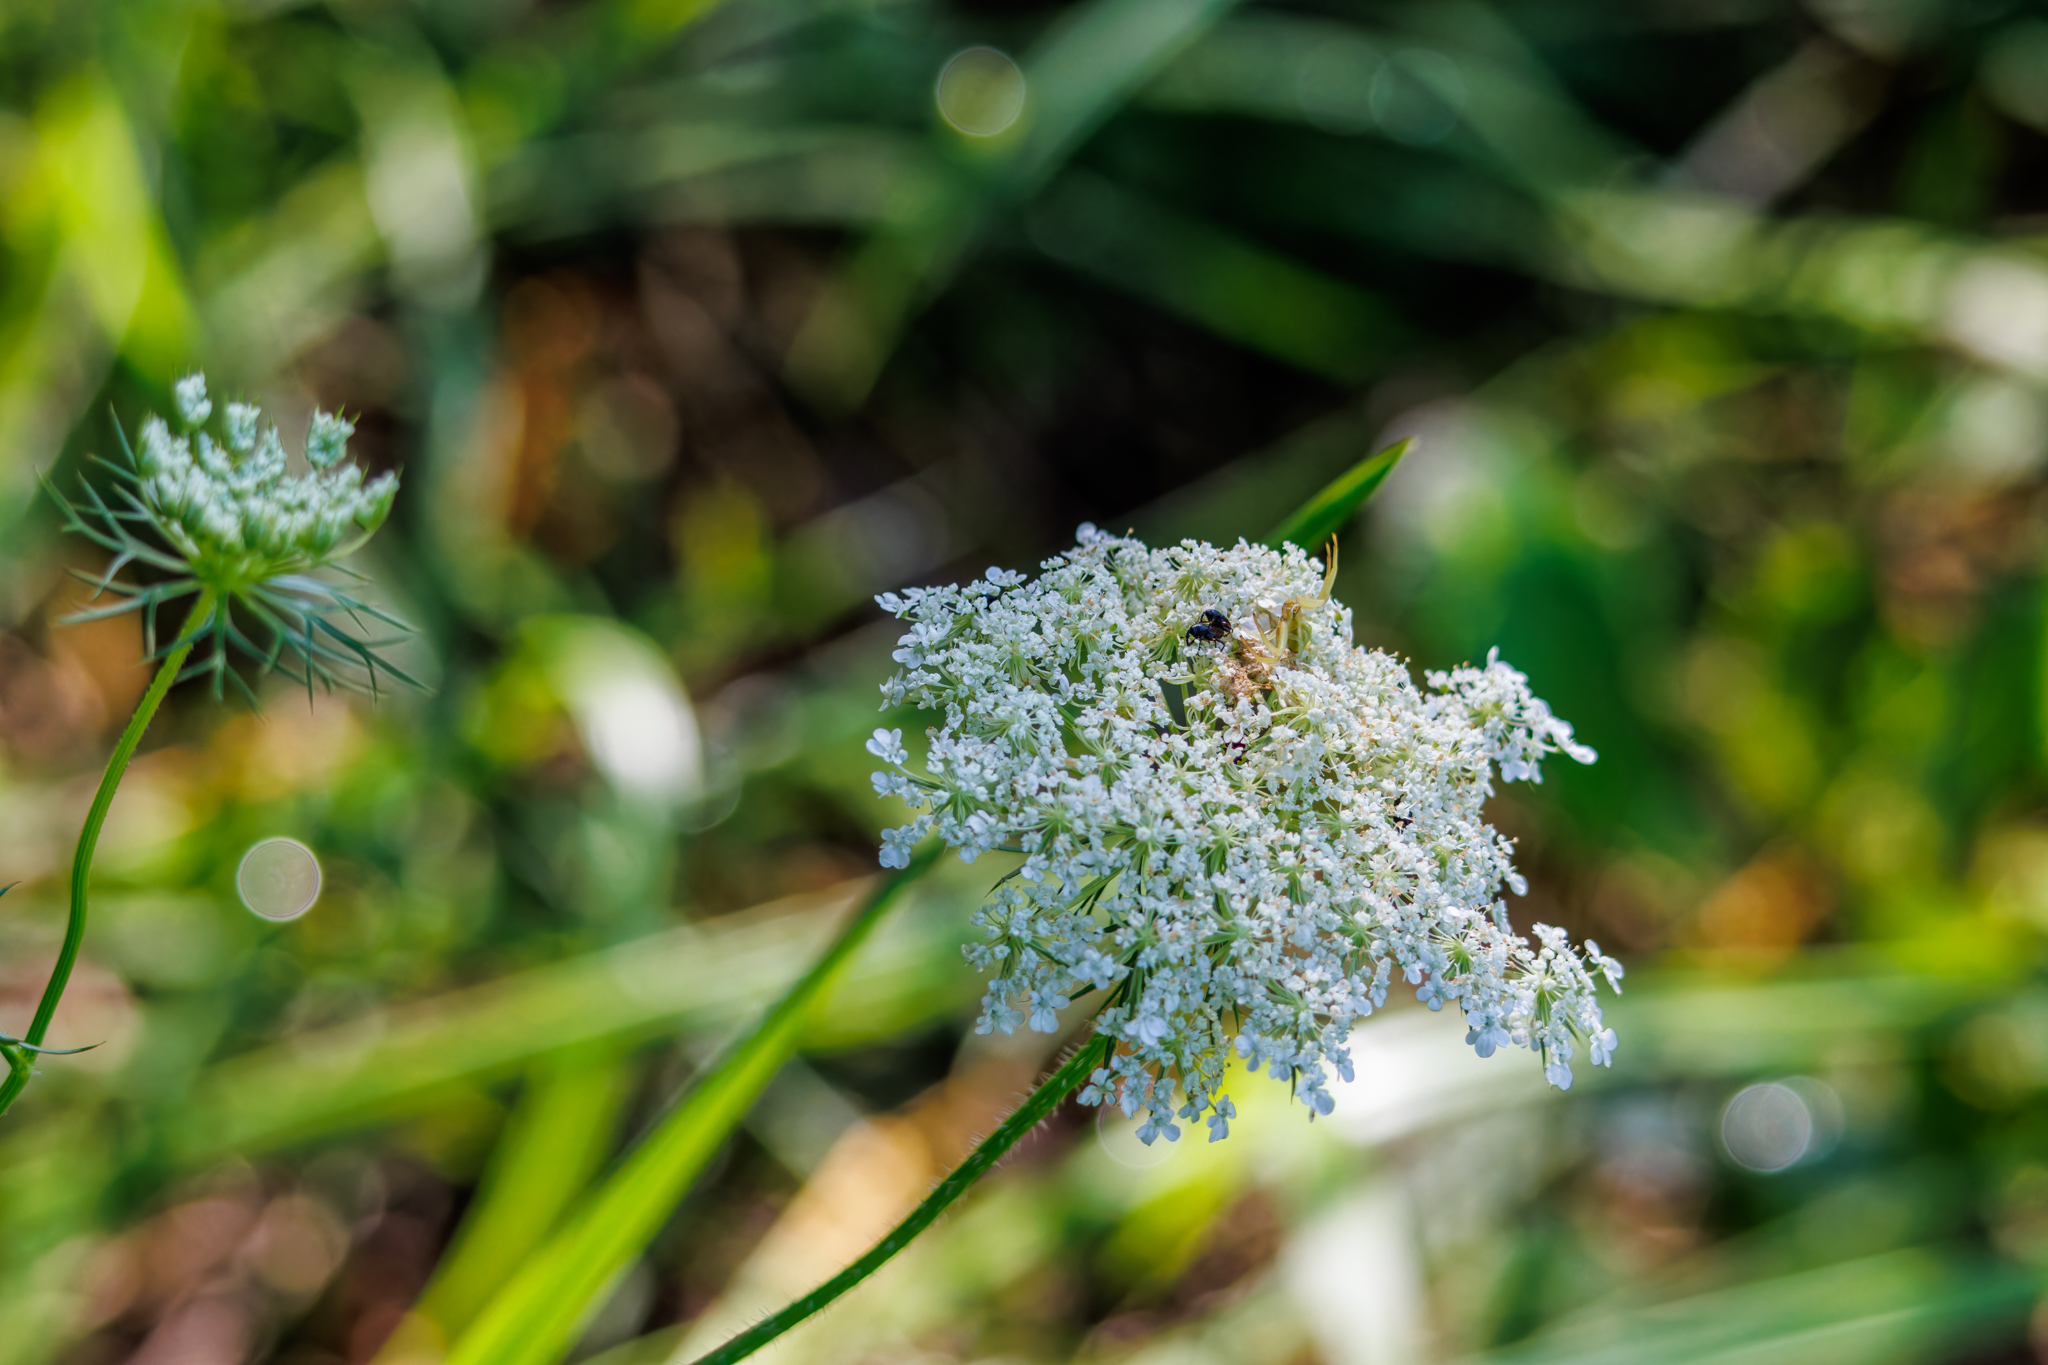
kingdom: Plantae
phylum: Tracheophyta
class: Magnoliopsida
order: Apiales
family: Apiaceae
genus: Daucus
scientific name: Daucus carota
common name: Wild carrot
